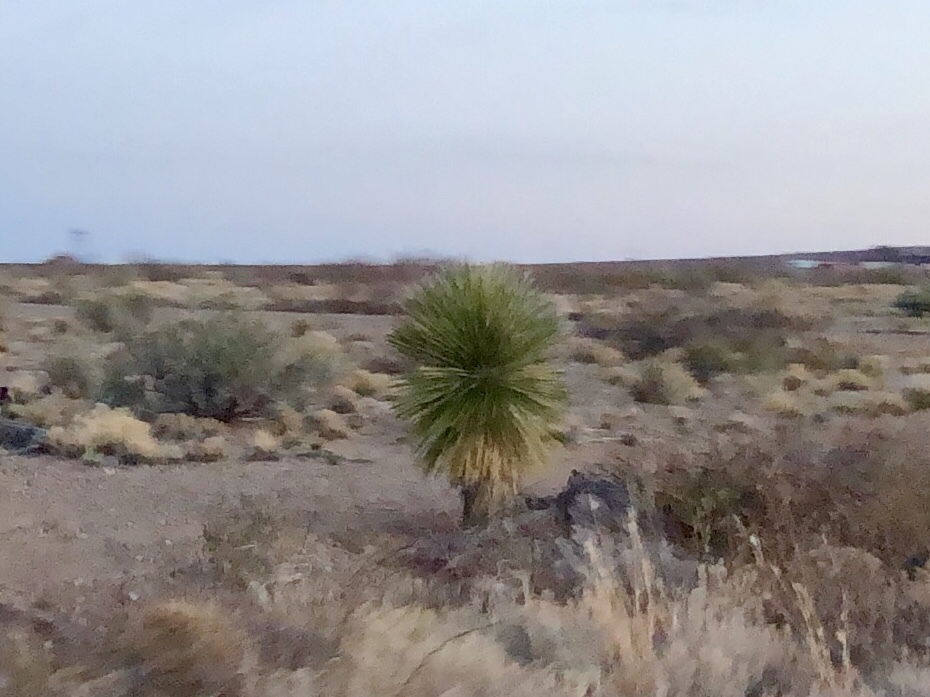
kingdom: Plantae
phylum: Tracheophyta
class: Liliopsida
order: Asparagales
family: Asparagaceae
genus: Yucca
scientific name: Yucca elata
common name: Palmella
